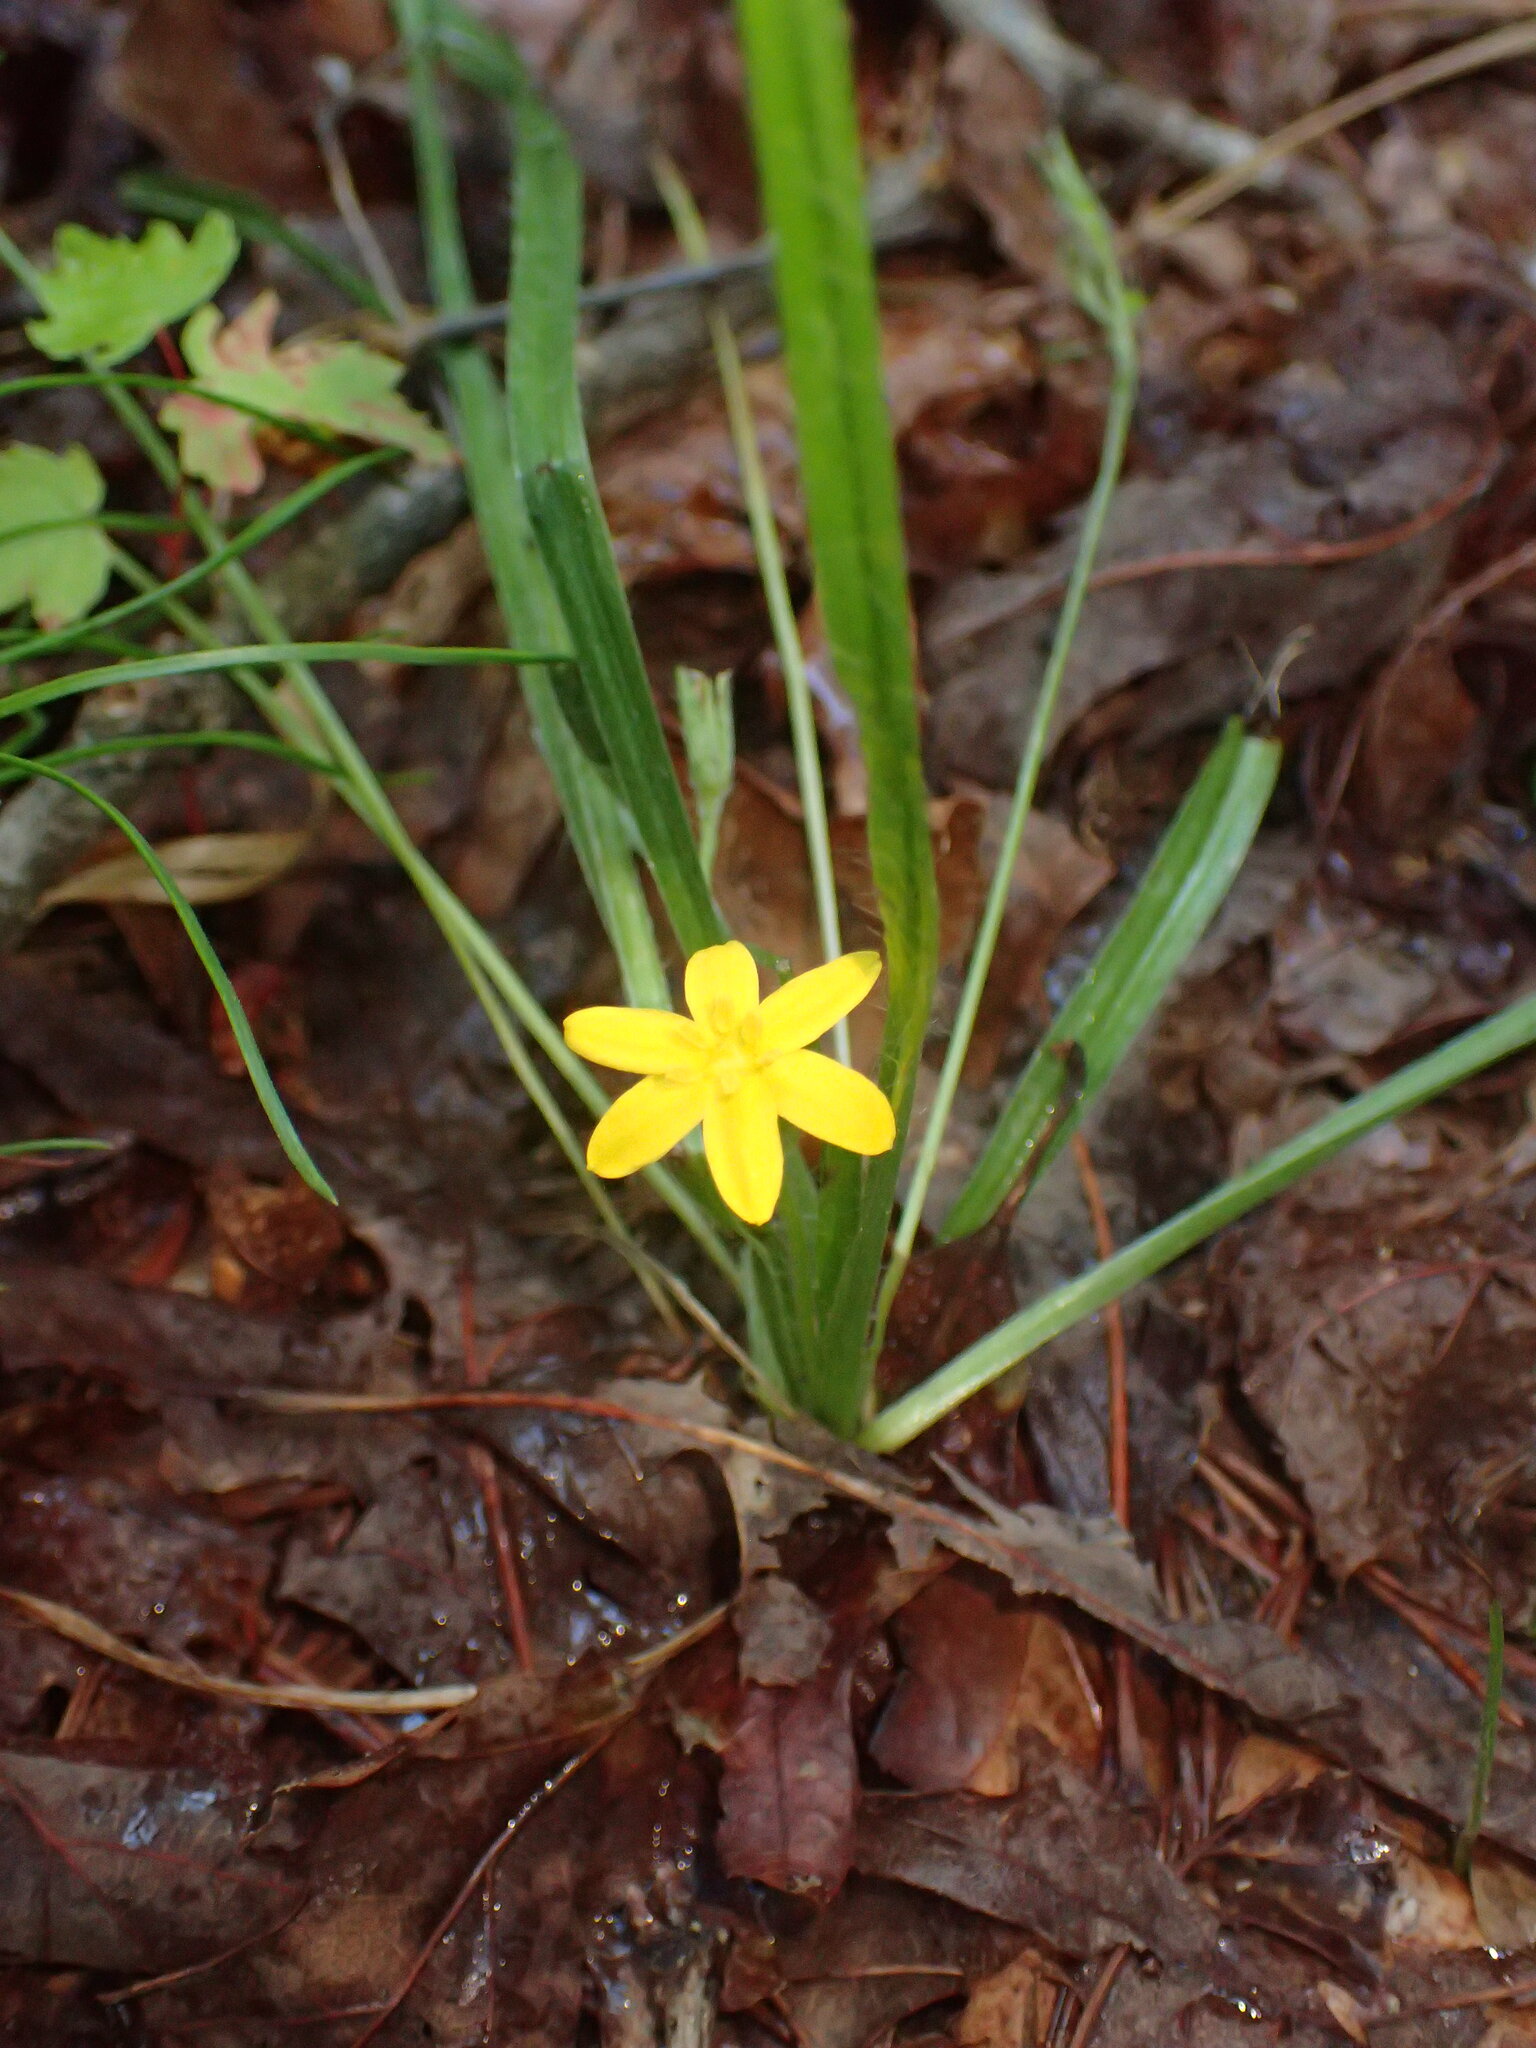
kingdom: Plantae
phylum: Tracheophyta
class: Liliopsida
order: Asparagales
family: Hypoxidaceae
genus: Hypoxis
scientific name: Hypoxis hirsuta
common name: Common goldstar
